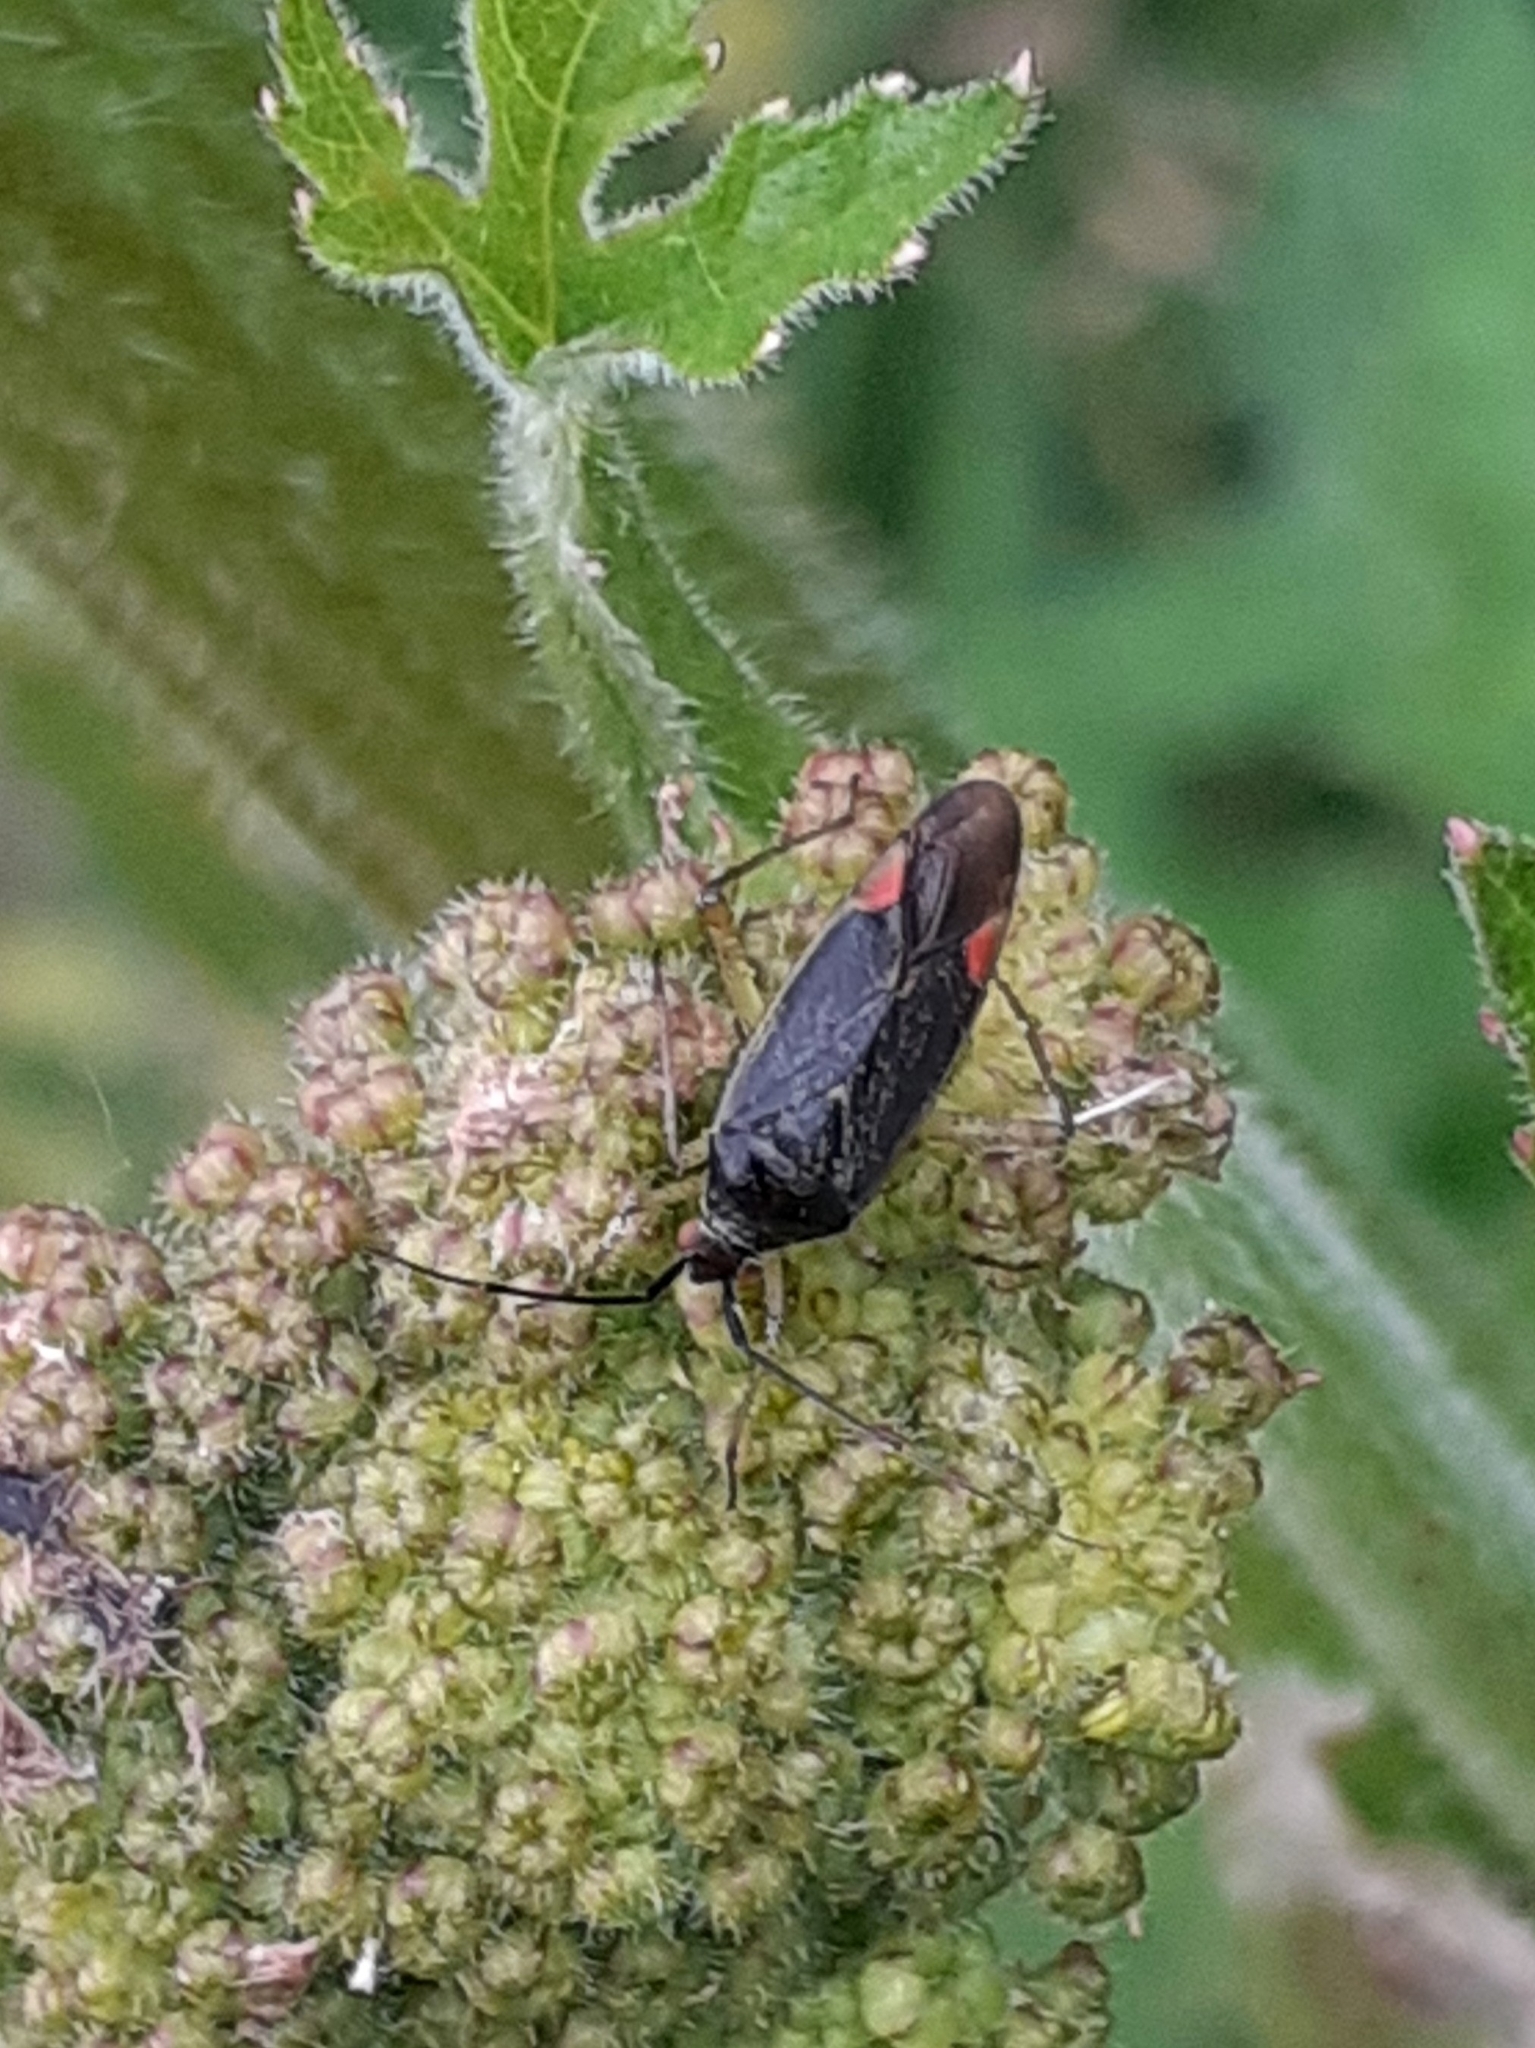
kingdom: Animalia
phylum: Arthropoda
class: Insecta
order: Hemiptera
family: Miridae
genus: Closterotomus
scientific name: Closterotomus trivialis
